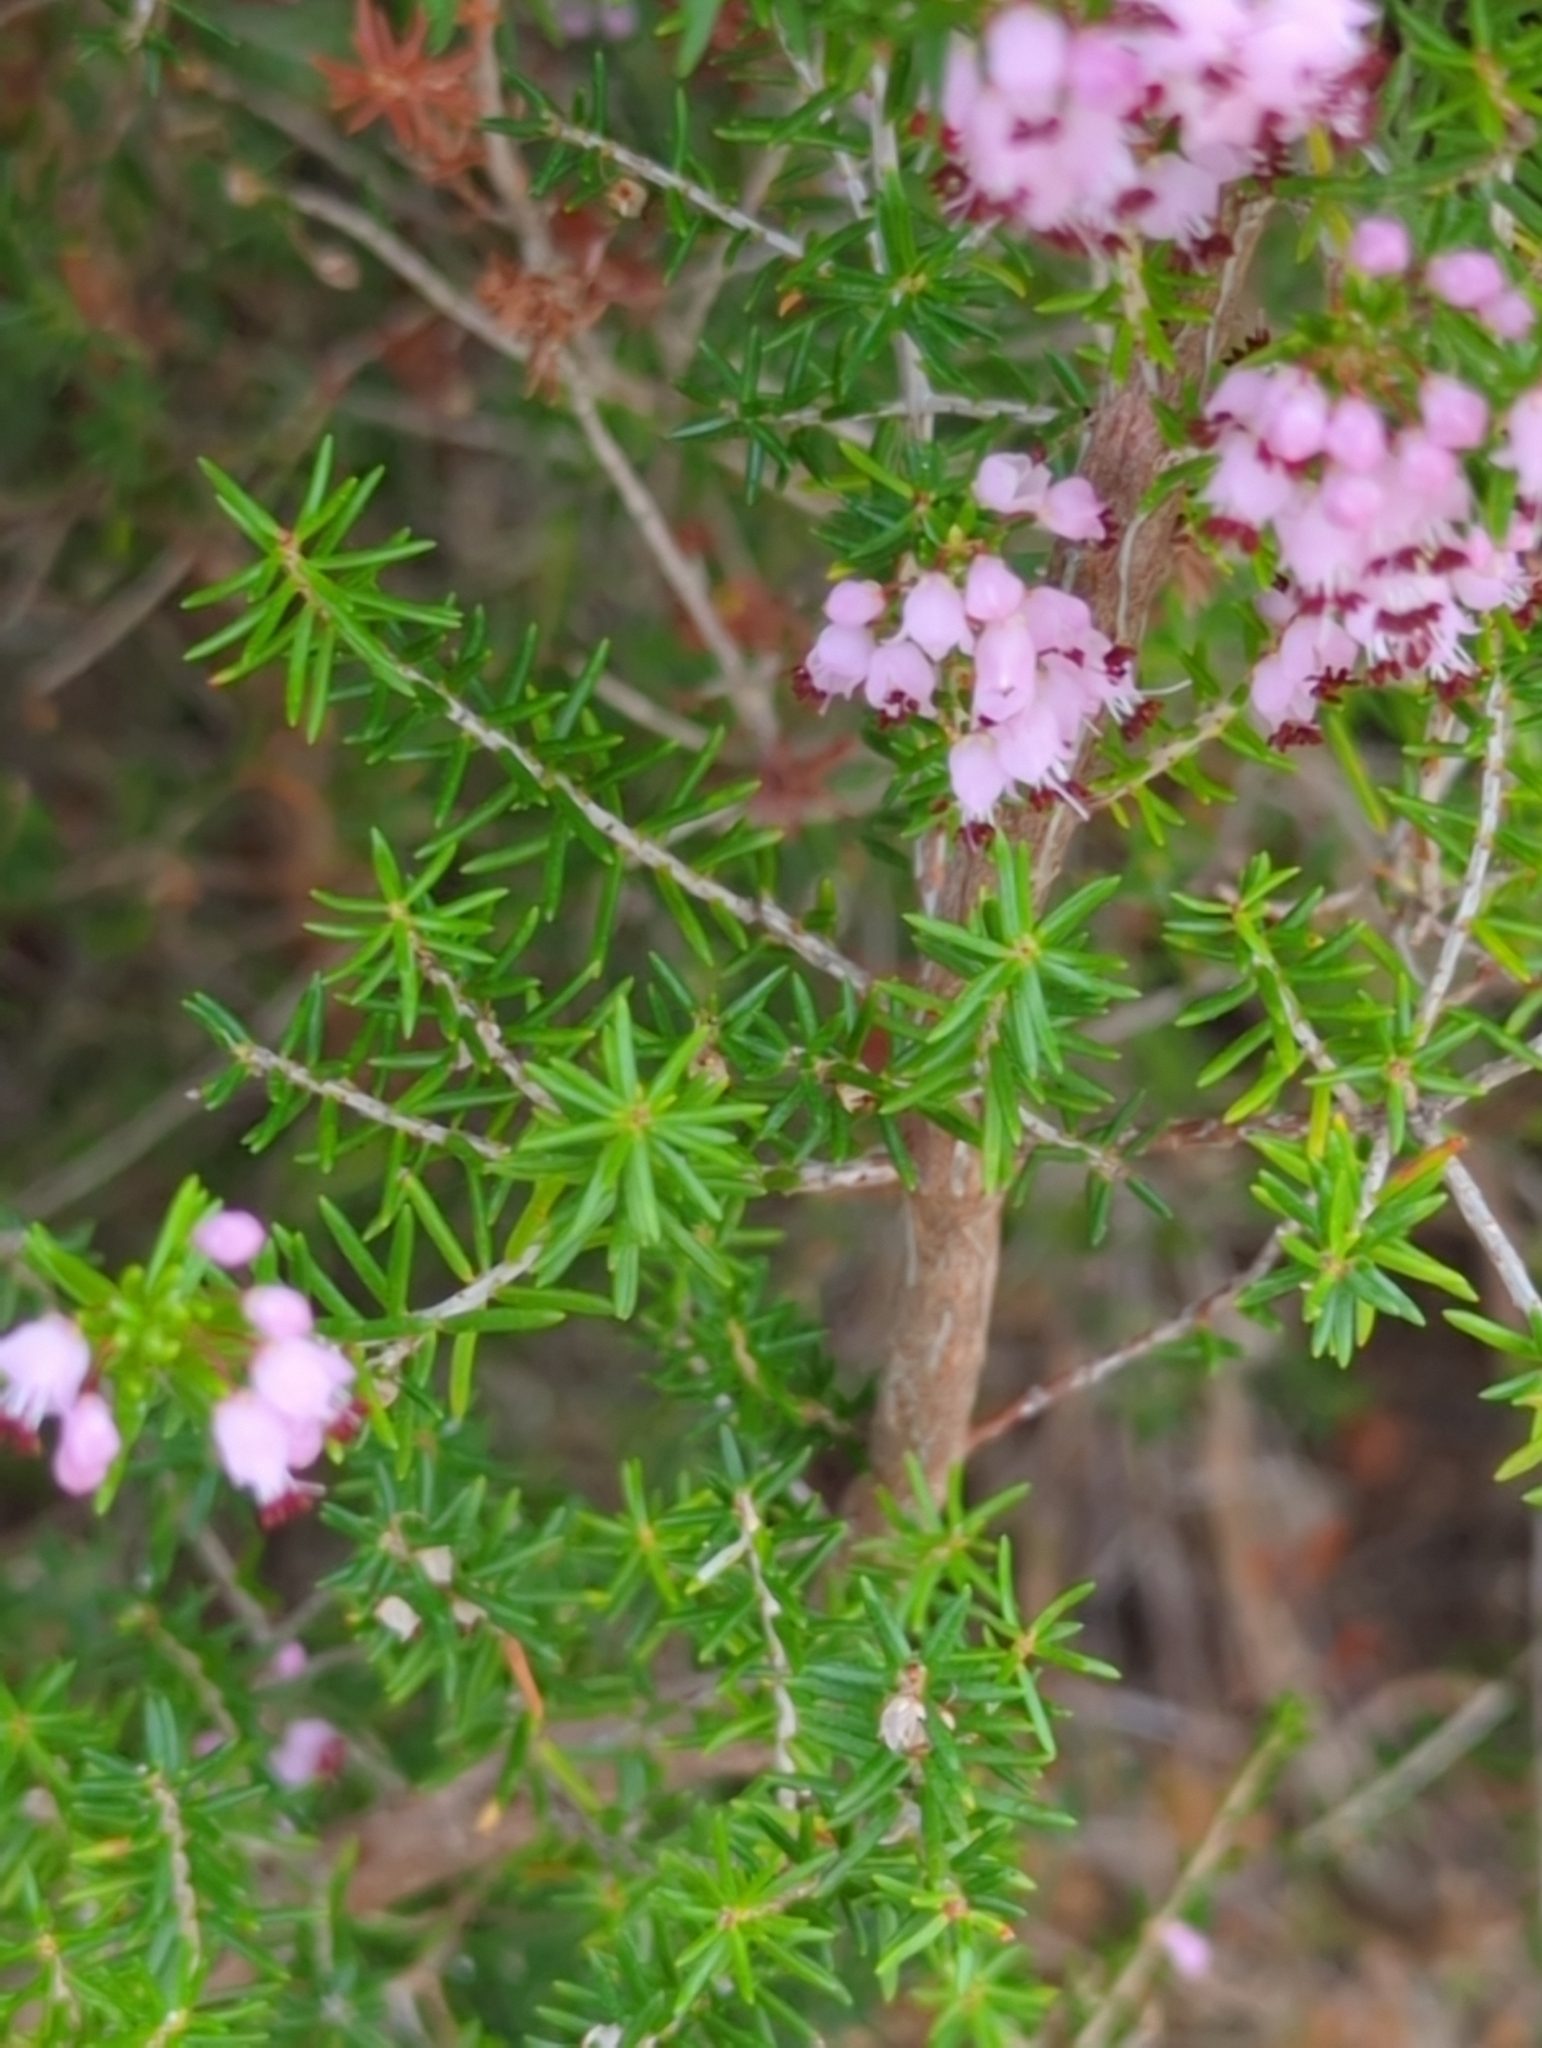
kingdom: Plantae
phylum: Tracheophyta
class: Magnoliopsida
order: Ericales
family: Ericaceae
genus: Erica
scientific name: Erica manipuliflora
